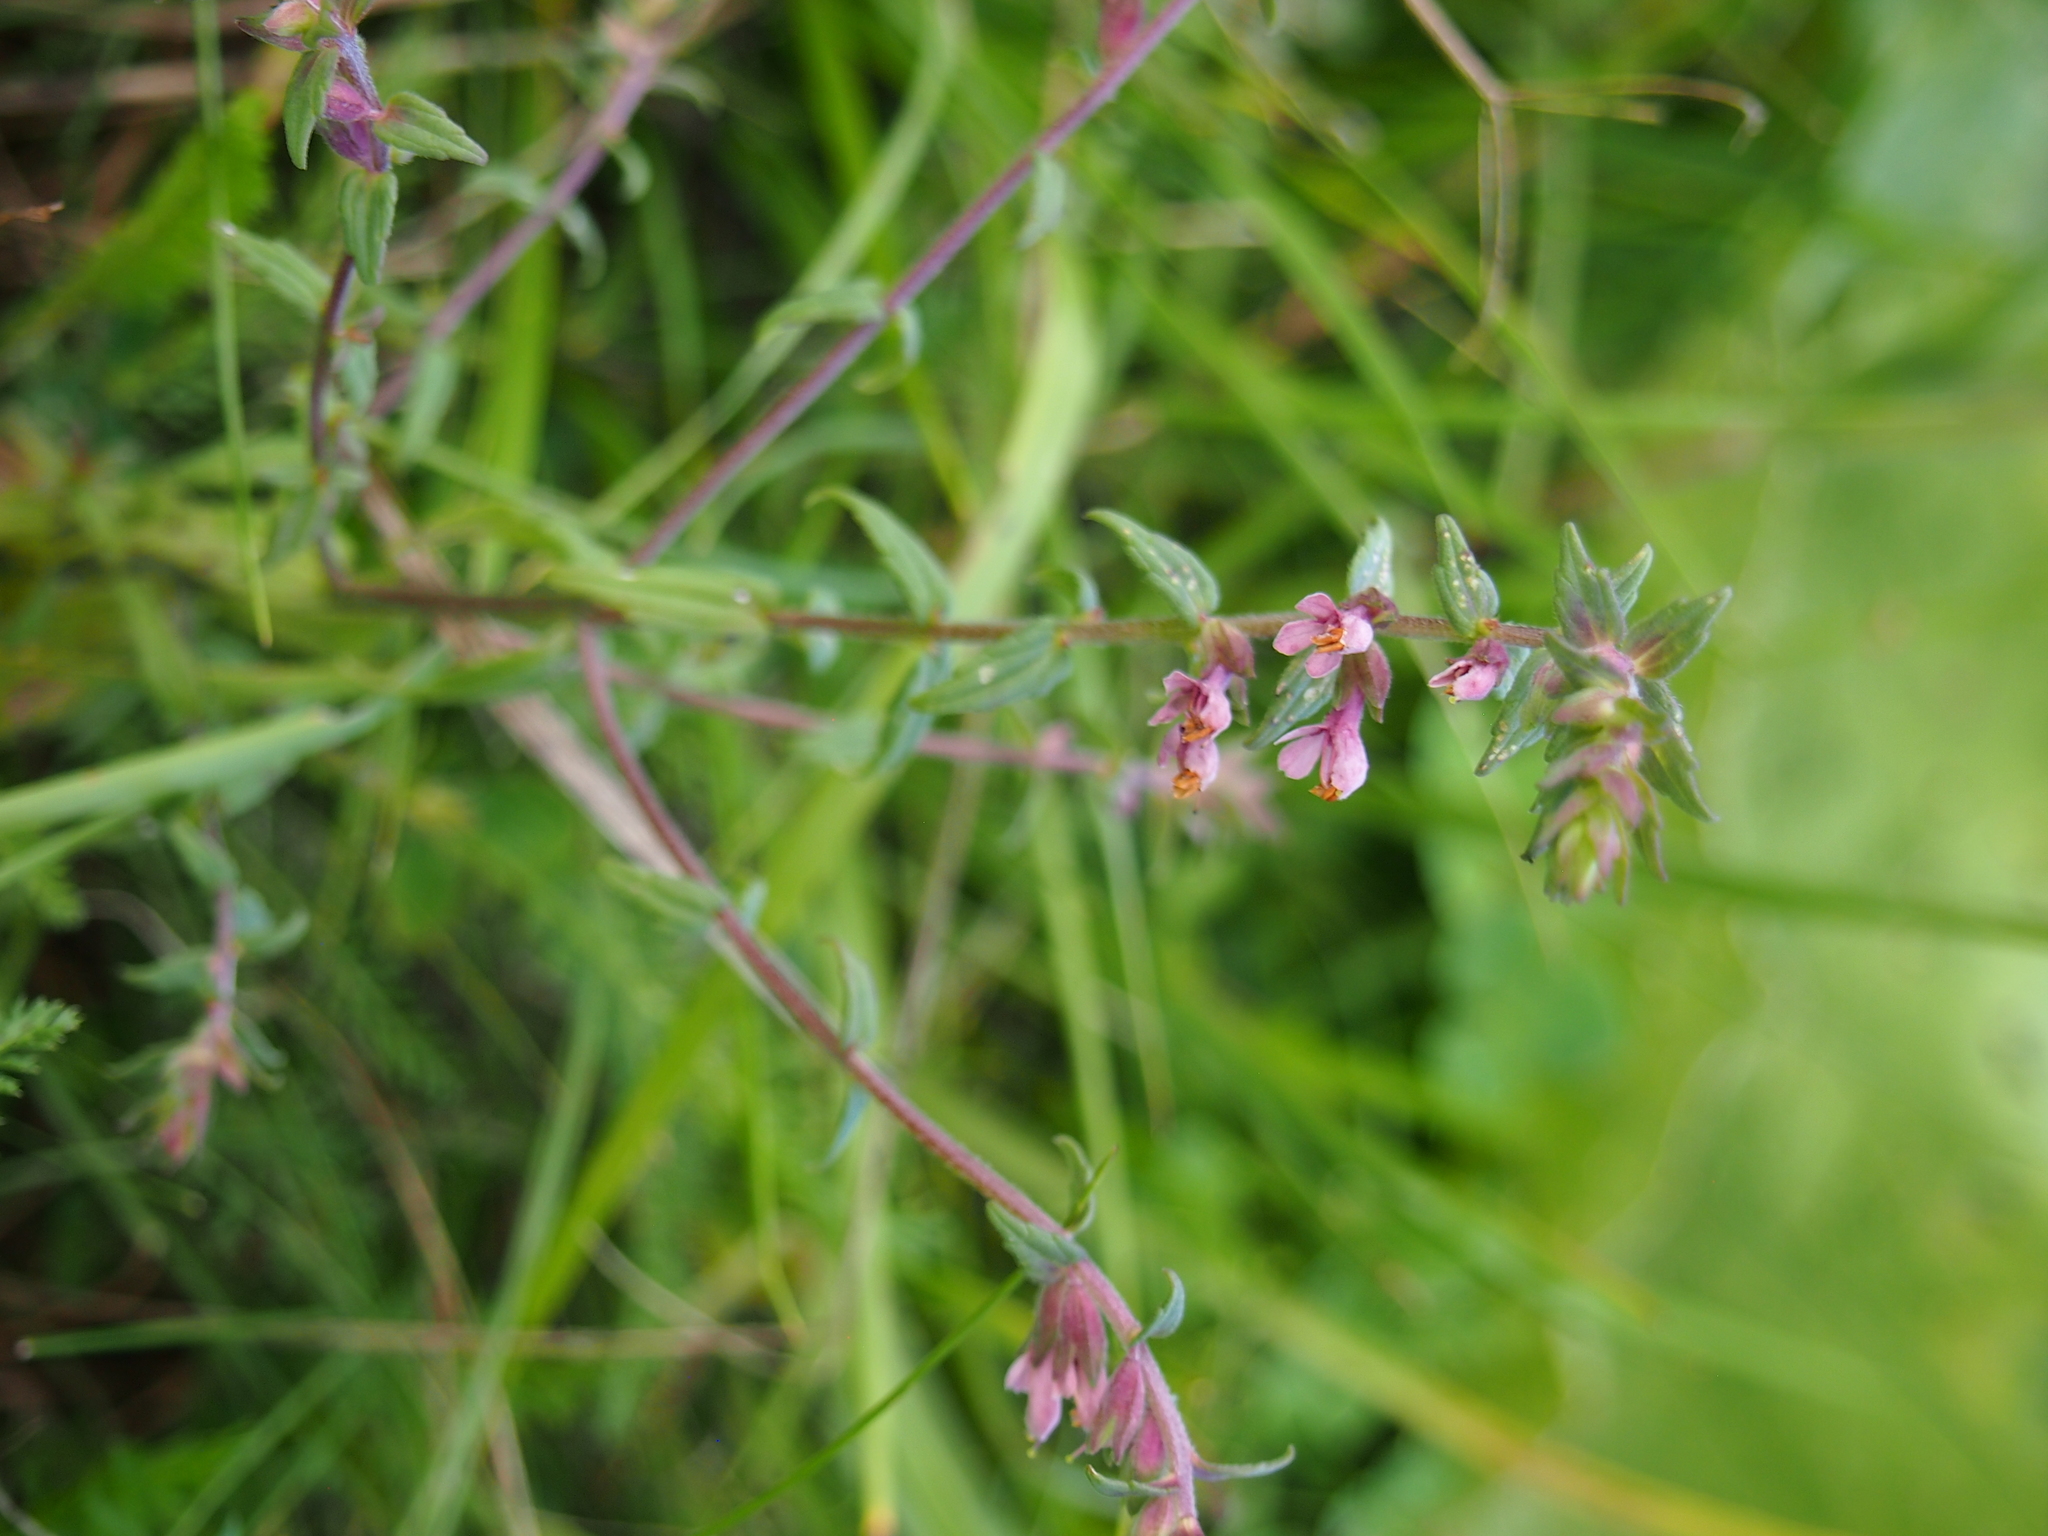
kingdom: Plantae
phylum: Tracheophyta
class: Magnoliopsida
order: Lamiales
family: Orobanchaceae
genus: Odontites
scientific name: Odontites vernus
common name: Red bartsia
